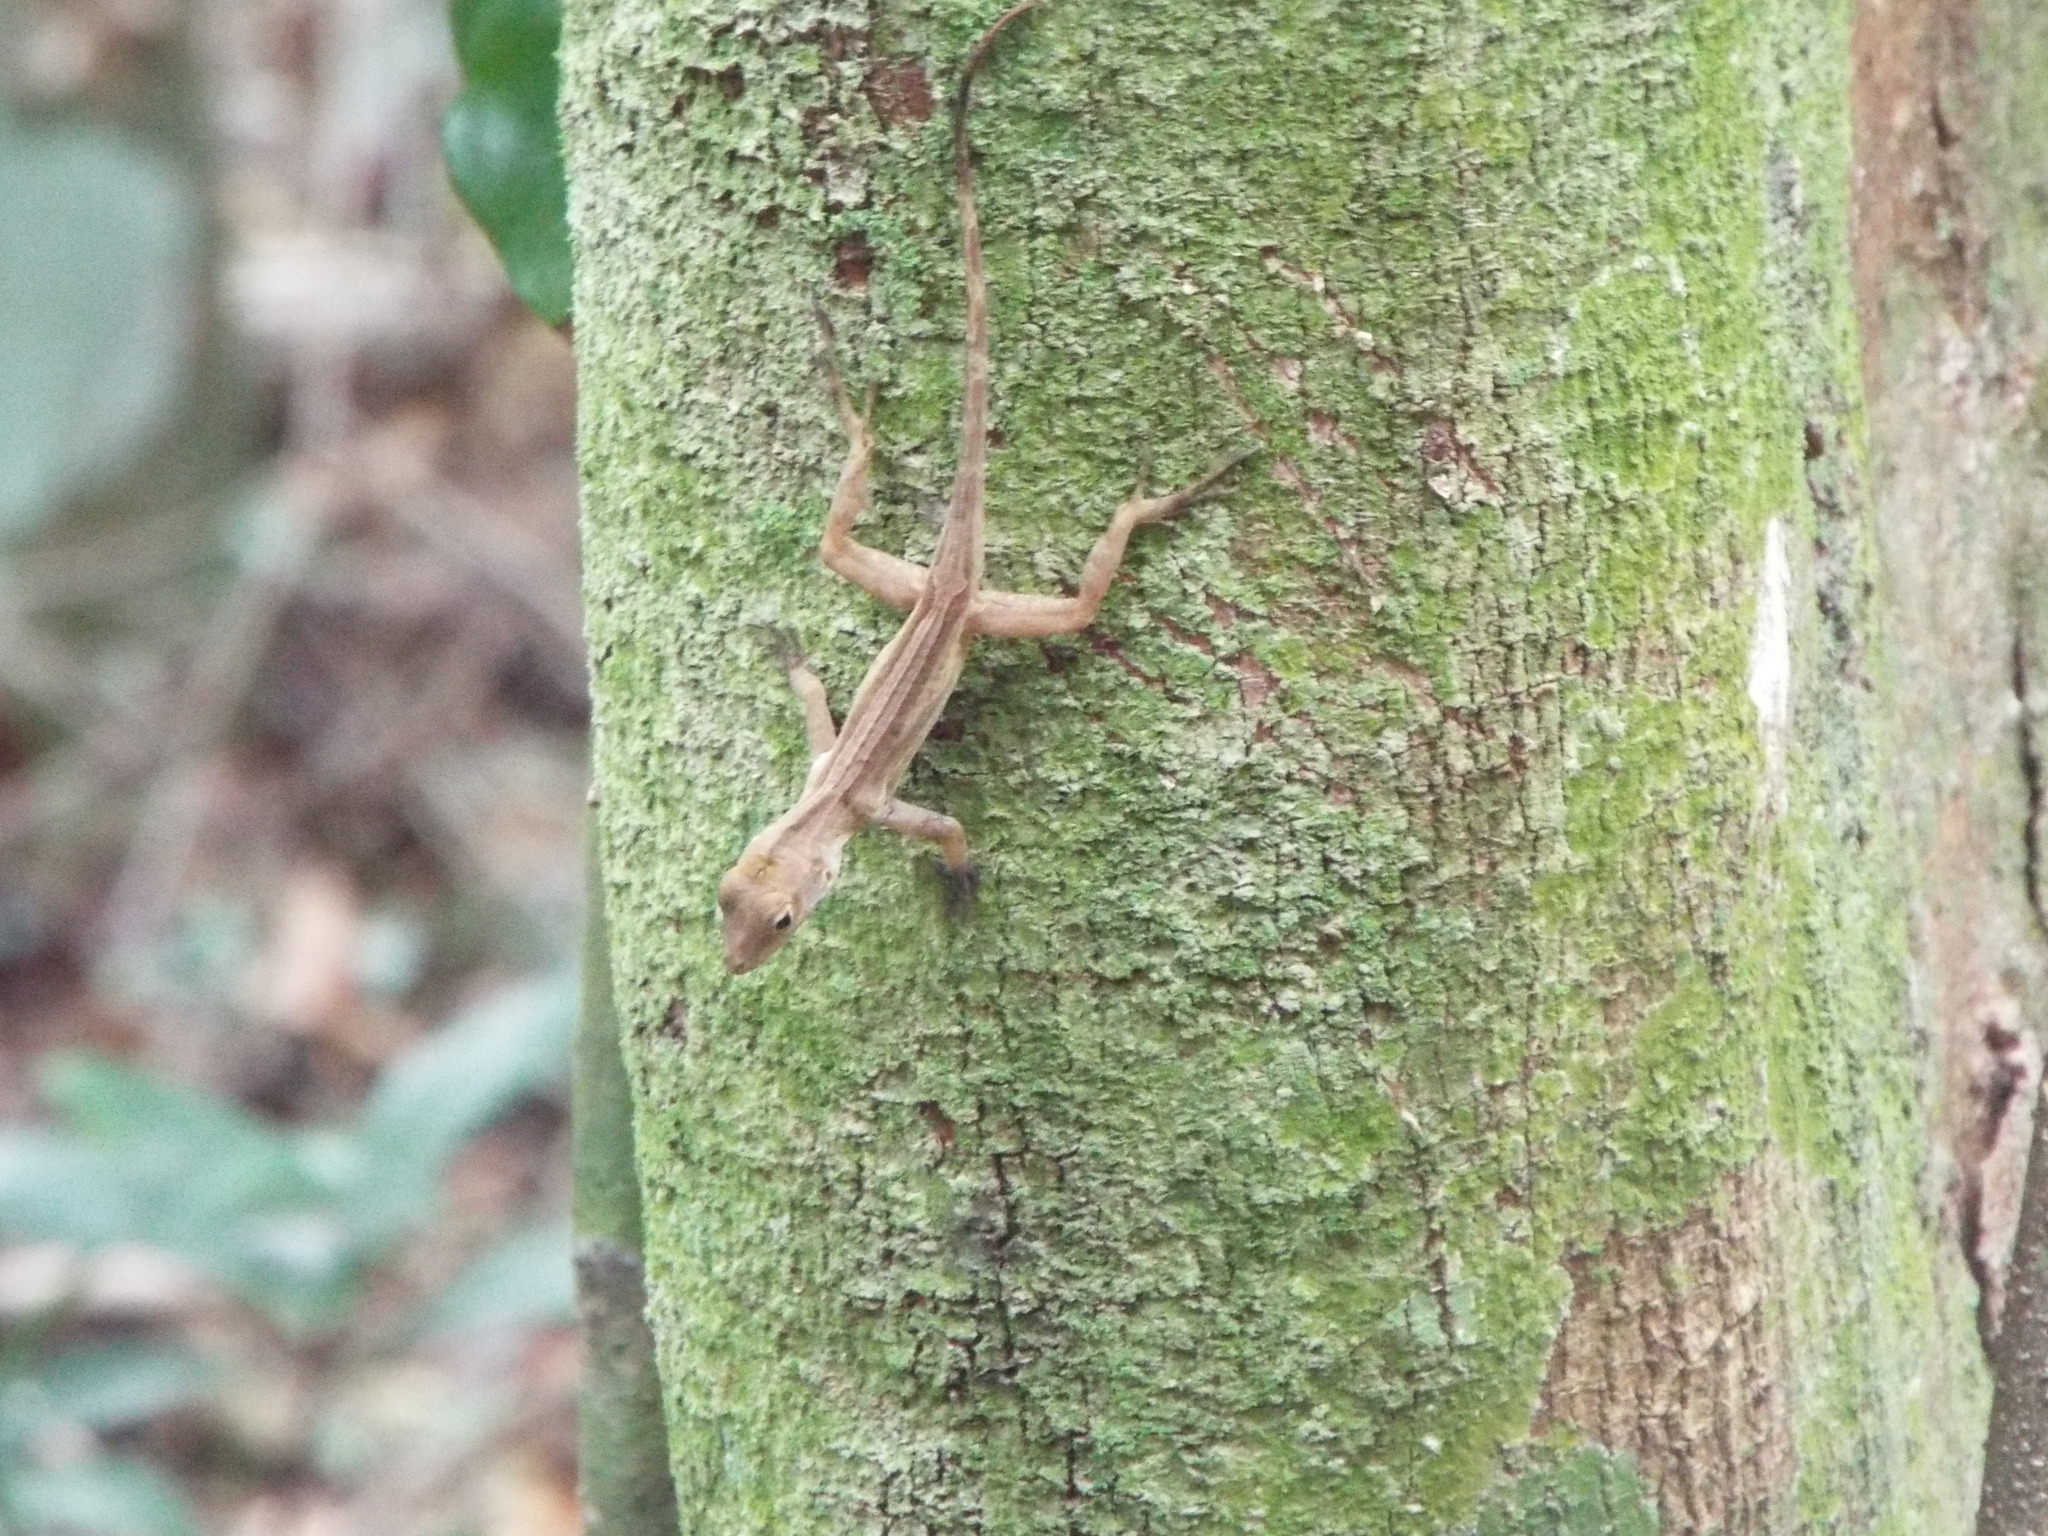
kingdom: Animalia
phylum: Chordata
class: Squamata
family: Dactyloidae
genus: Anolis
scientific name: Anolis cristatellus
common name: Crested anole
